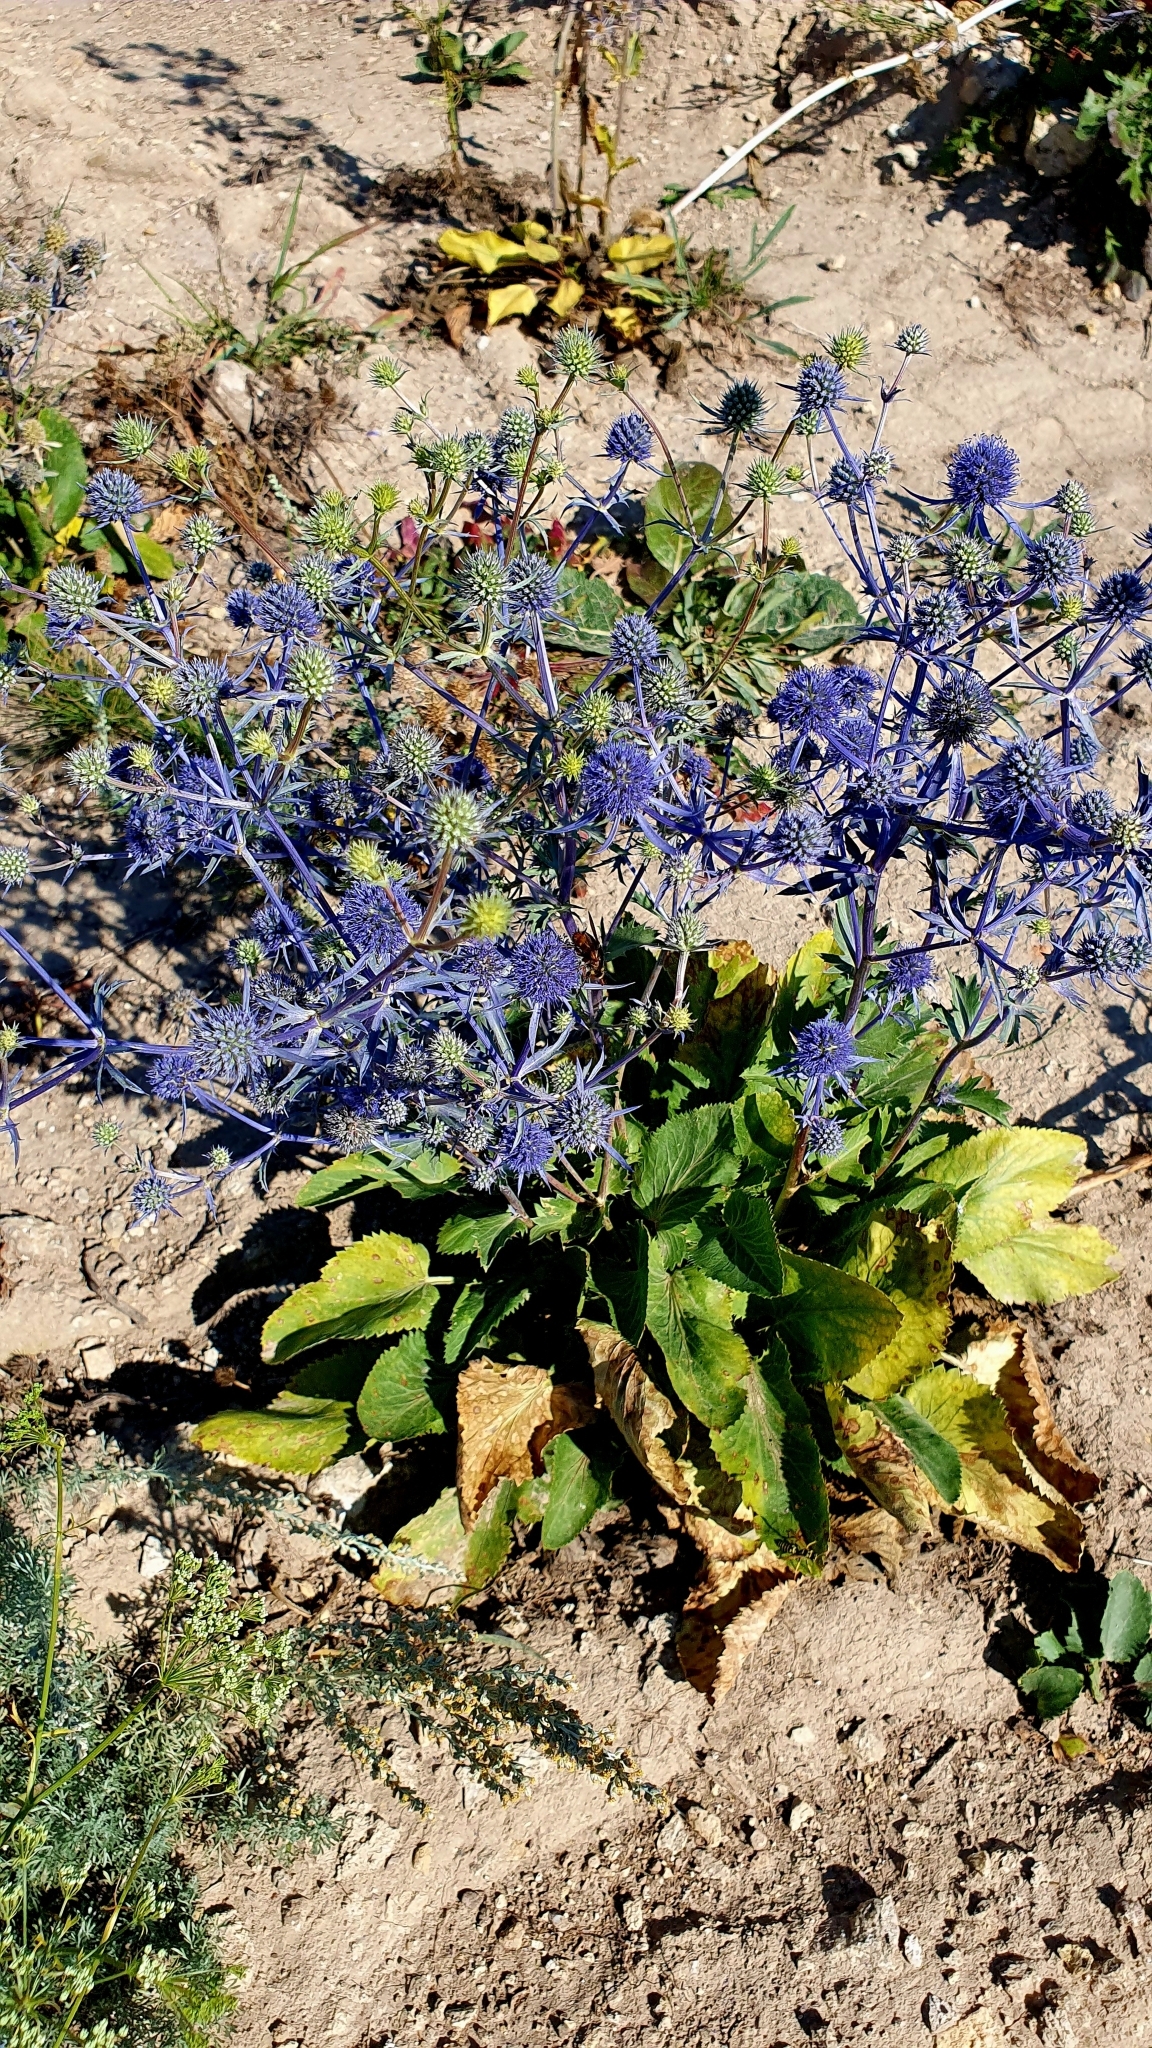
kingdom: Plantae
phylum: Tracheophyta
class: Magnoliopsida
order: Apiales
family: Apiaceae
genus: Eryngium
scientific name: Eryngium planum
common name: Blue eryngo
